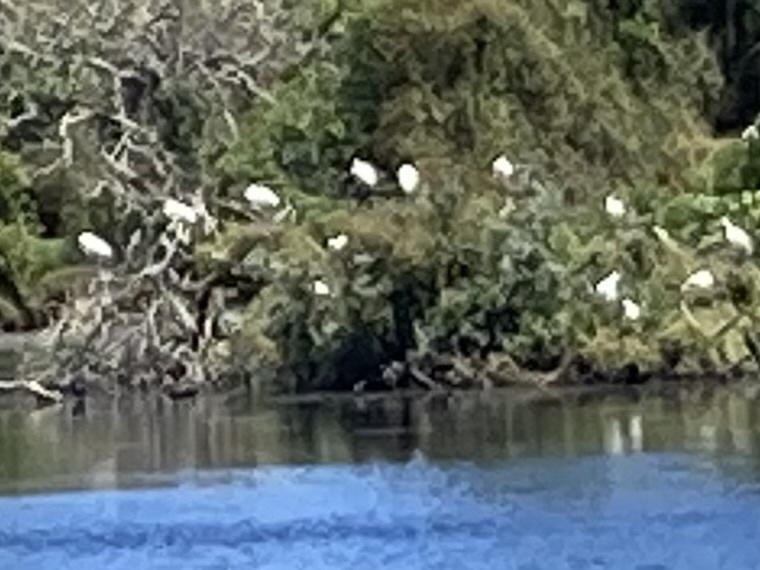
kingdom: Animalia
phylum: Chordata
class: Aves
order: Pelecaniformes
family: Threskiornithidae
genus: Platalea
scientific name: Platalea regia
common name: Royal spoonbill
